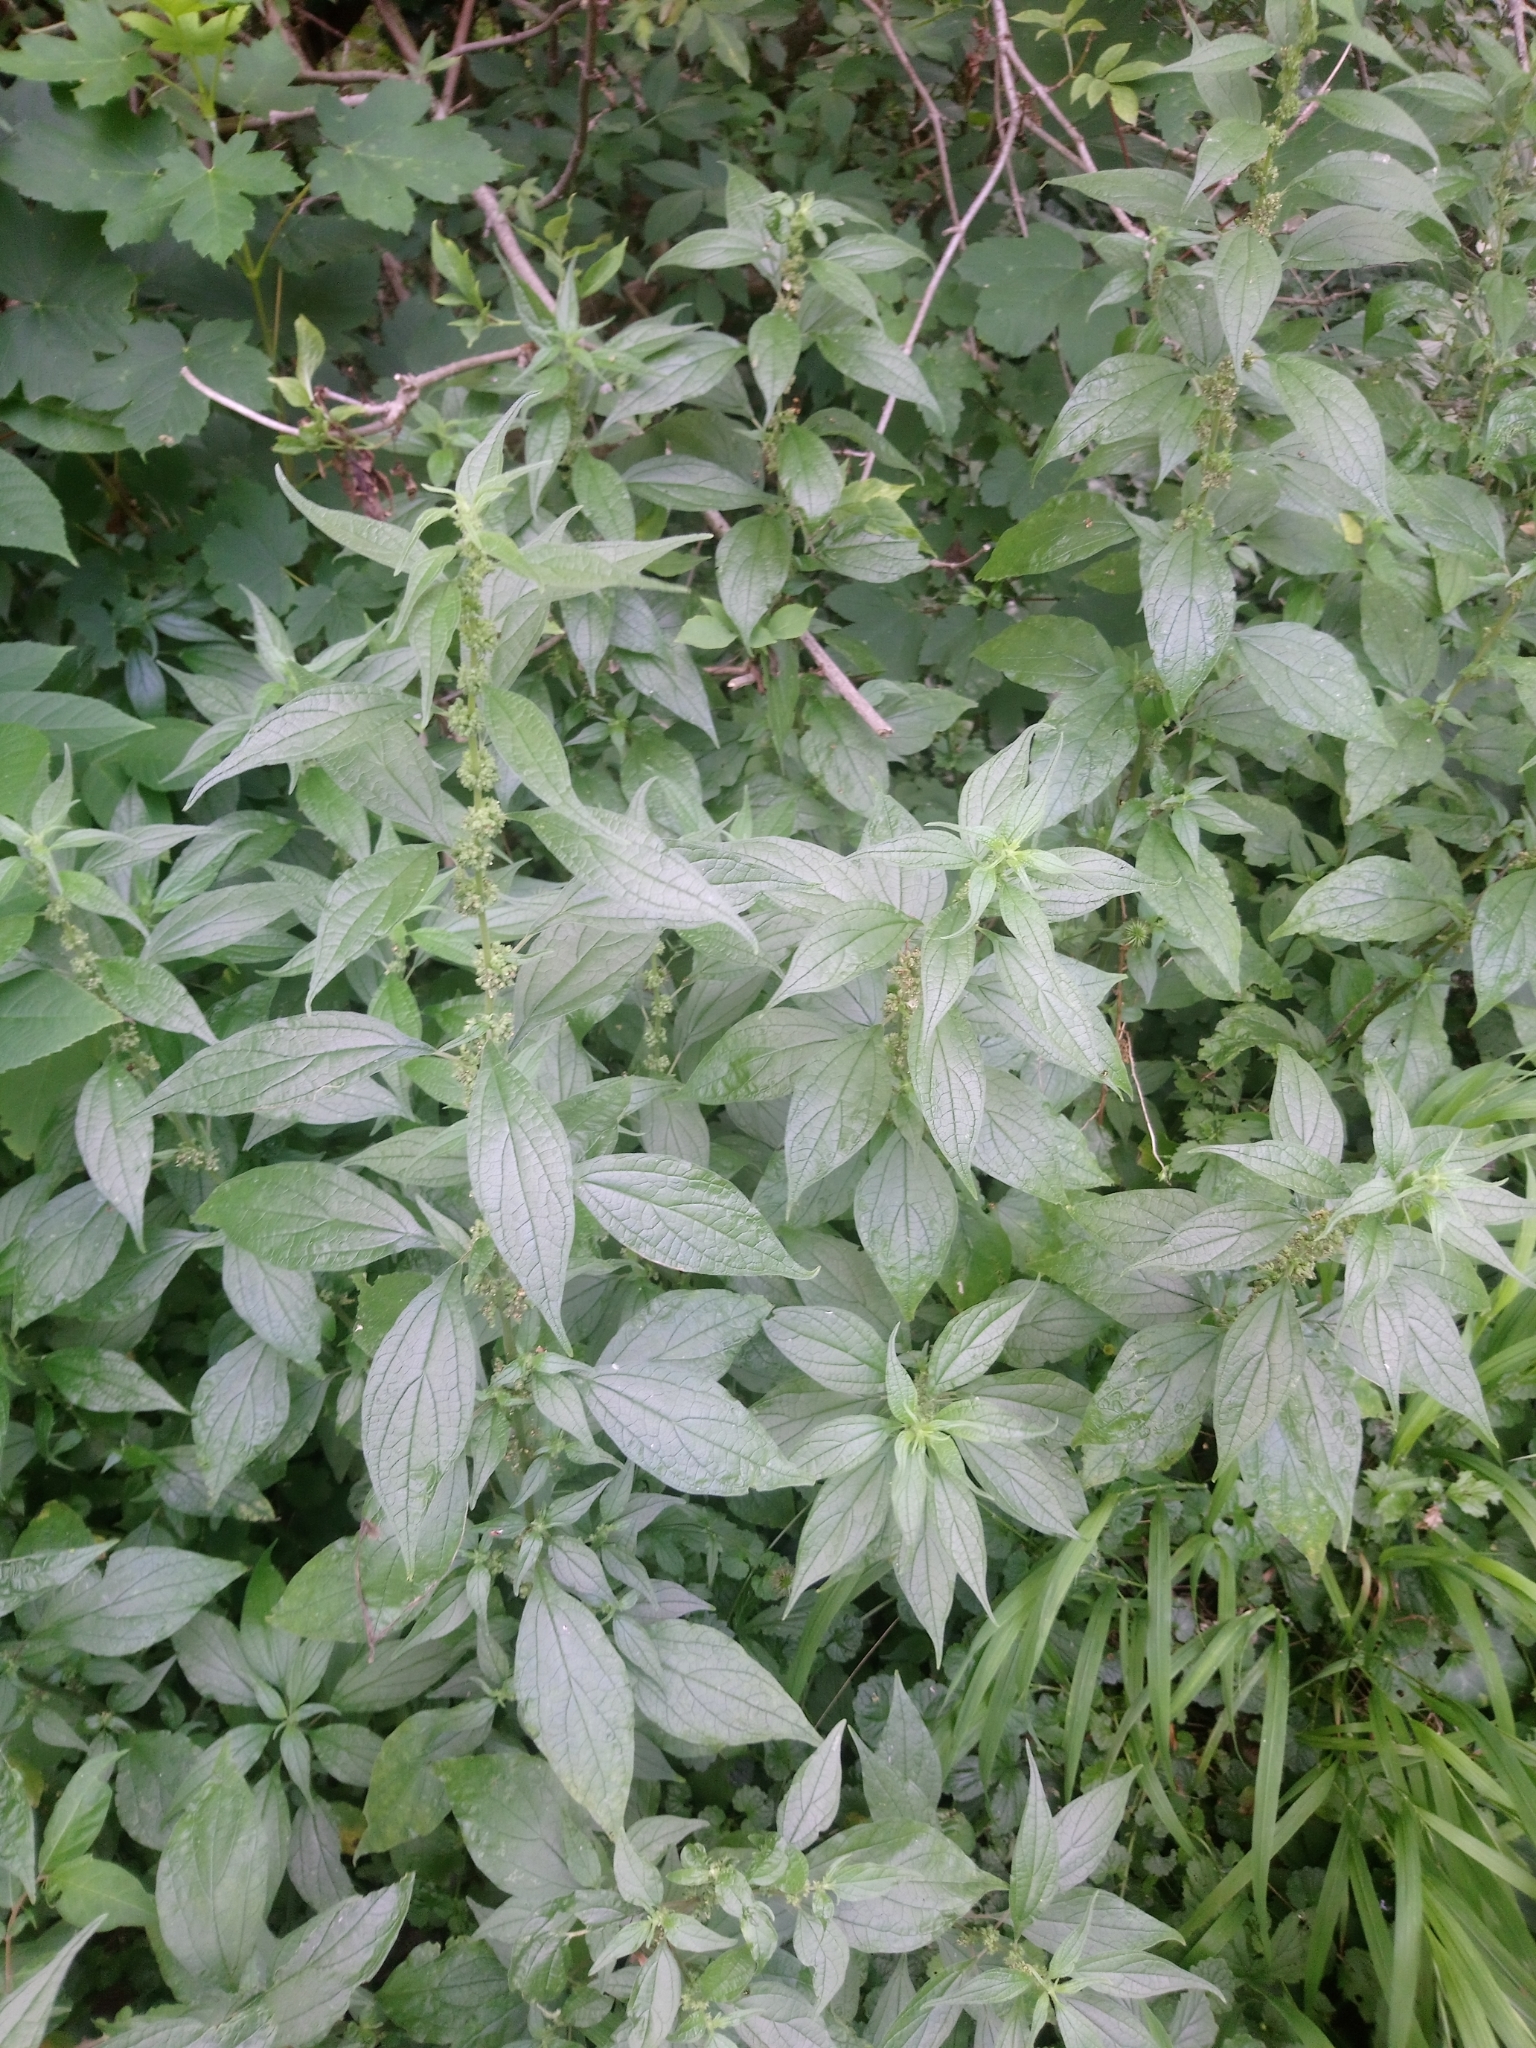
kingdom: Plantae
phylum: Tracheophyta
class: Magnoliopsida
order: Rosales
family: Urticaceae
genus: Parietaria
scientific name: Parietaria officinalis
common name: Eastern pellitory-of-the-wall
